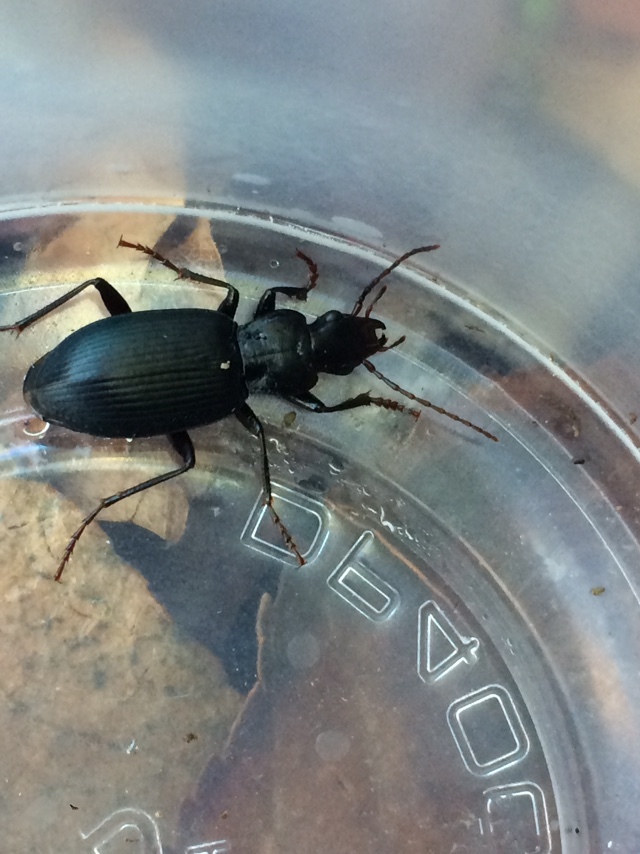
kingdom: Animalia
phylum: Arthropoda
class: Insecta
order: Coleoptera
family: Carabidae
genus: Laemostenus
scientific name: Laemostenus complanatus
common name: Cosmopolitan ground beetle
